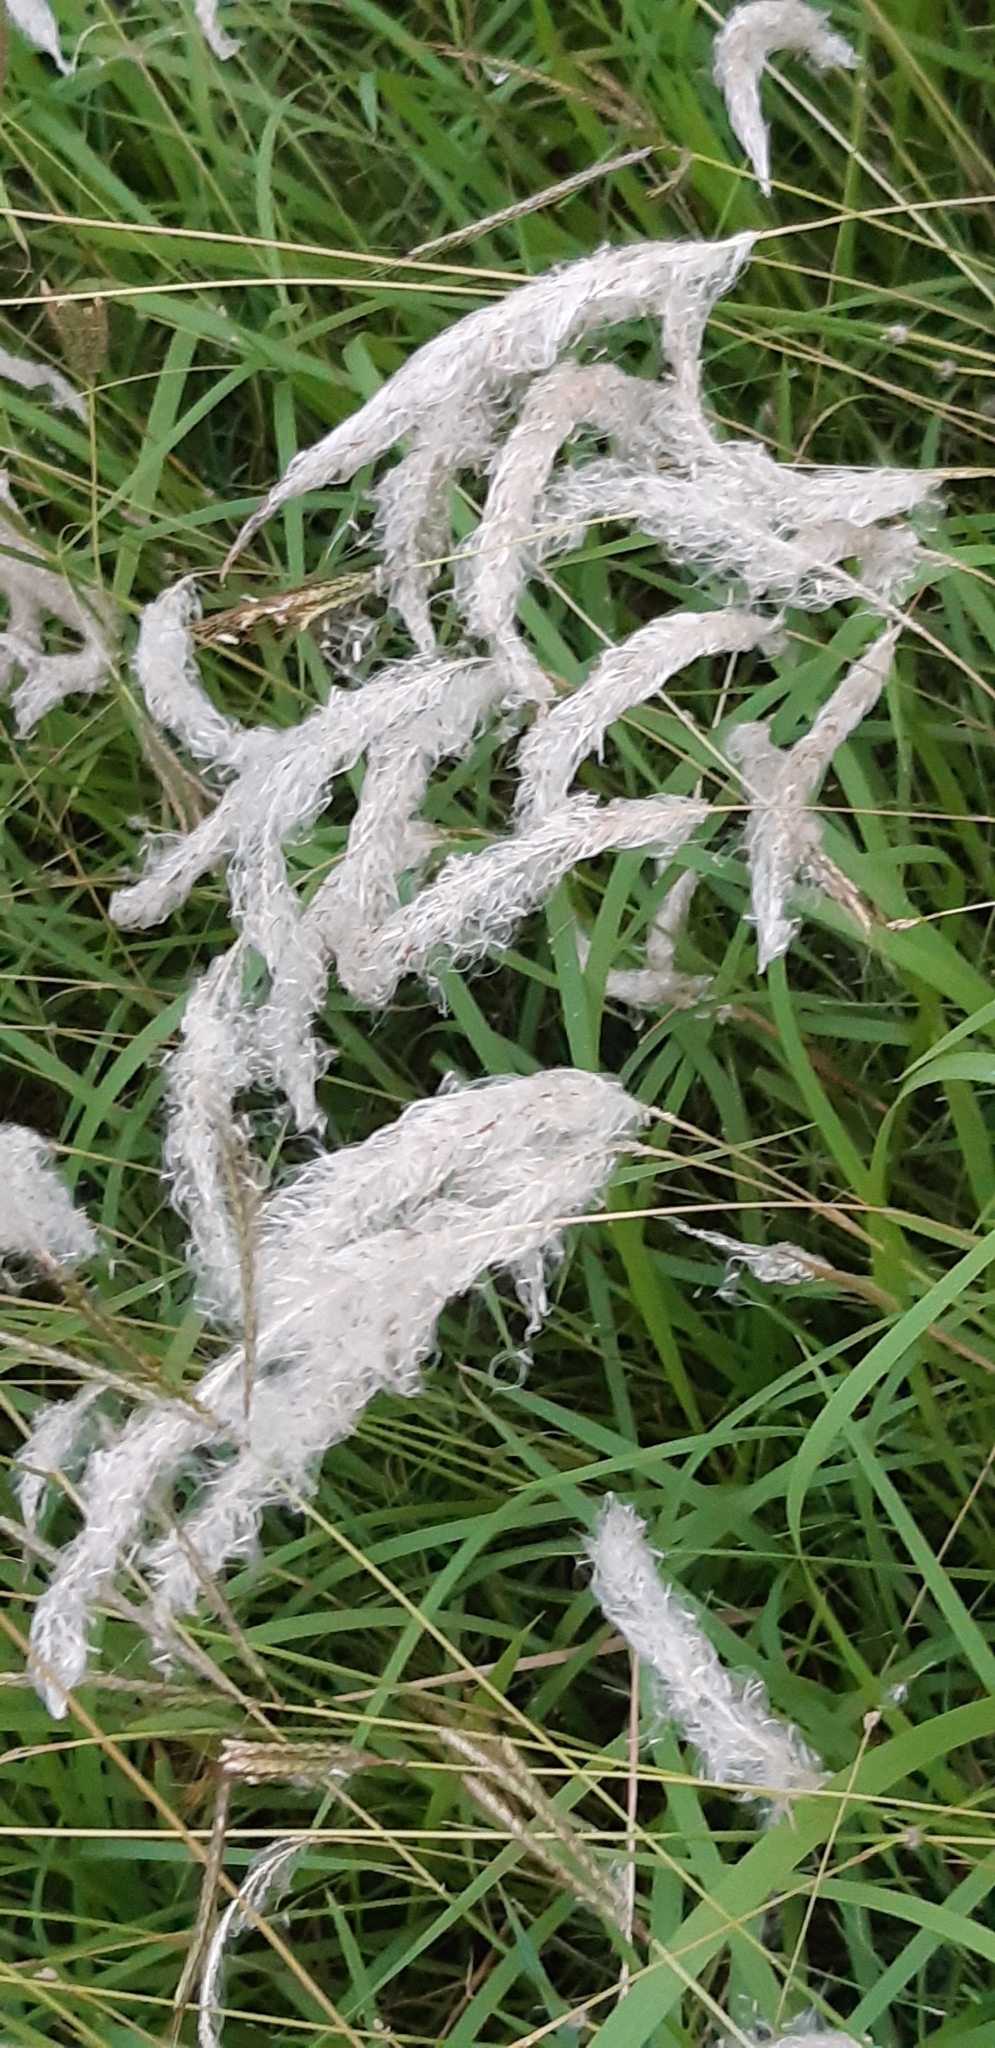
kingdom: Plantae
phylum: Tracheophyta
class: Liliopsida
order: Poales
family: Poaceae
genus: Imperata
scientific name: Imperata cylindrica
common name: Cogongrass
